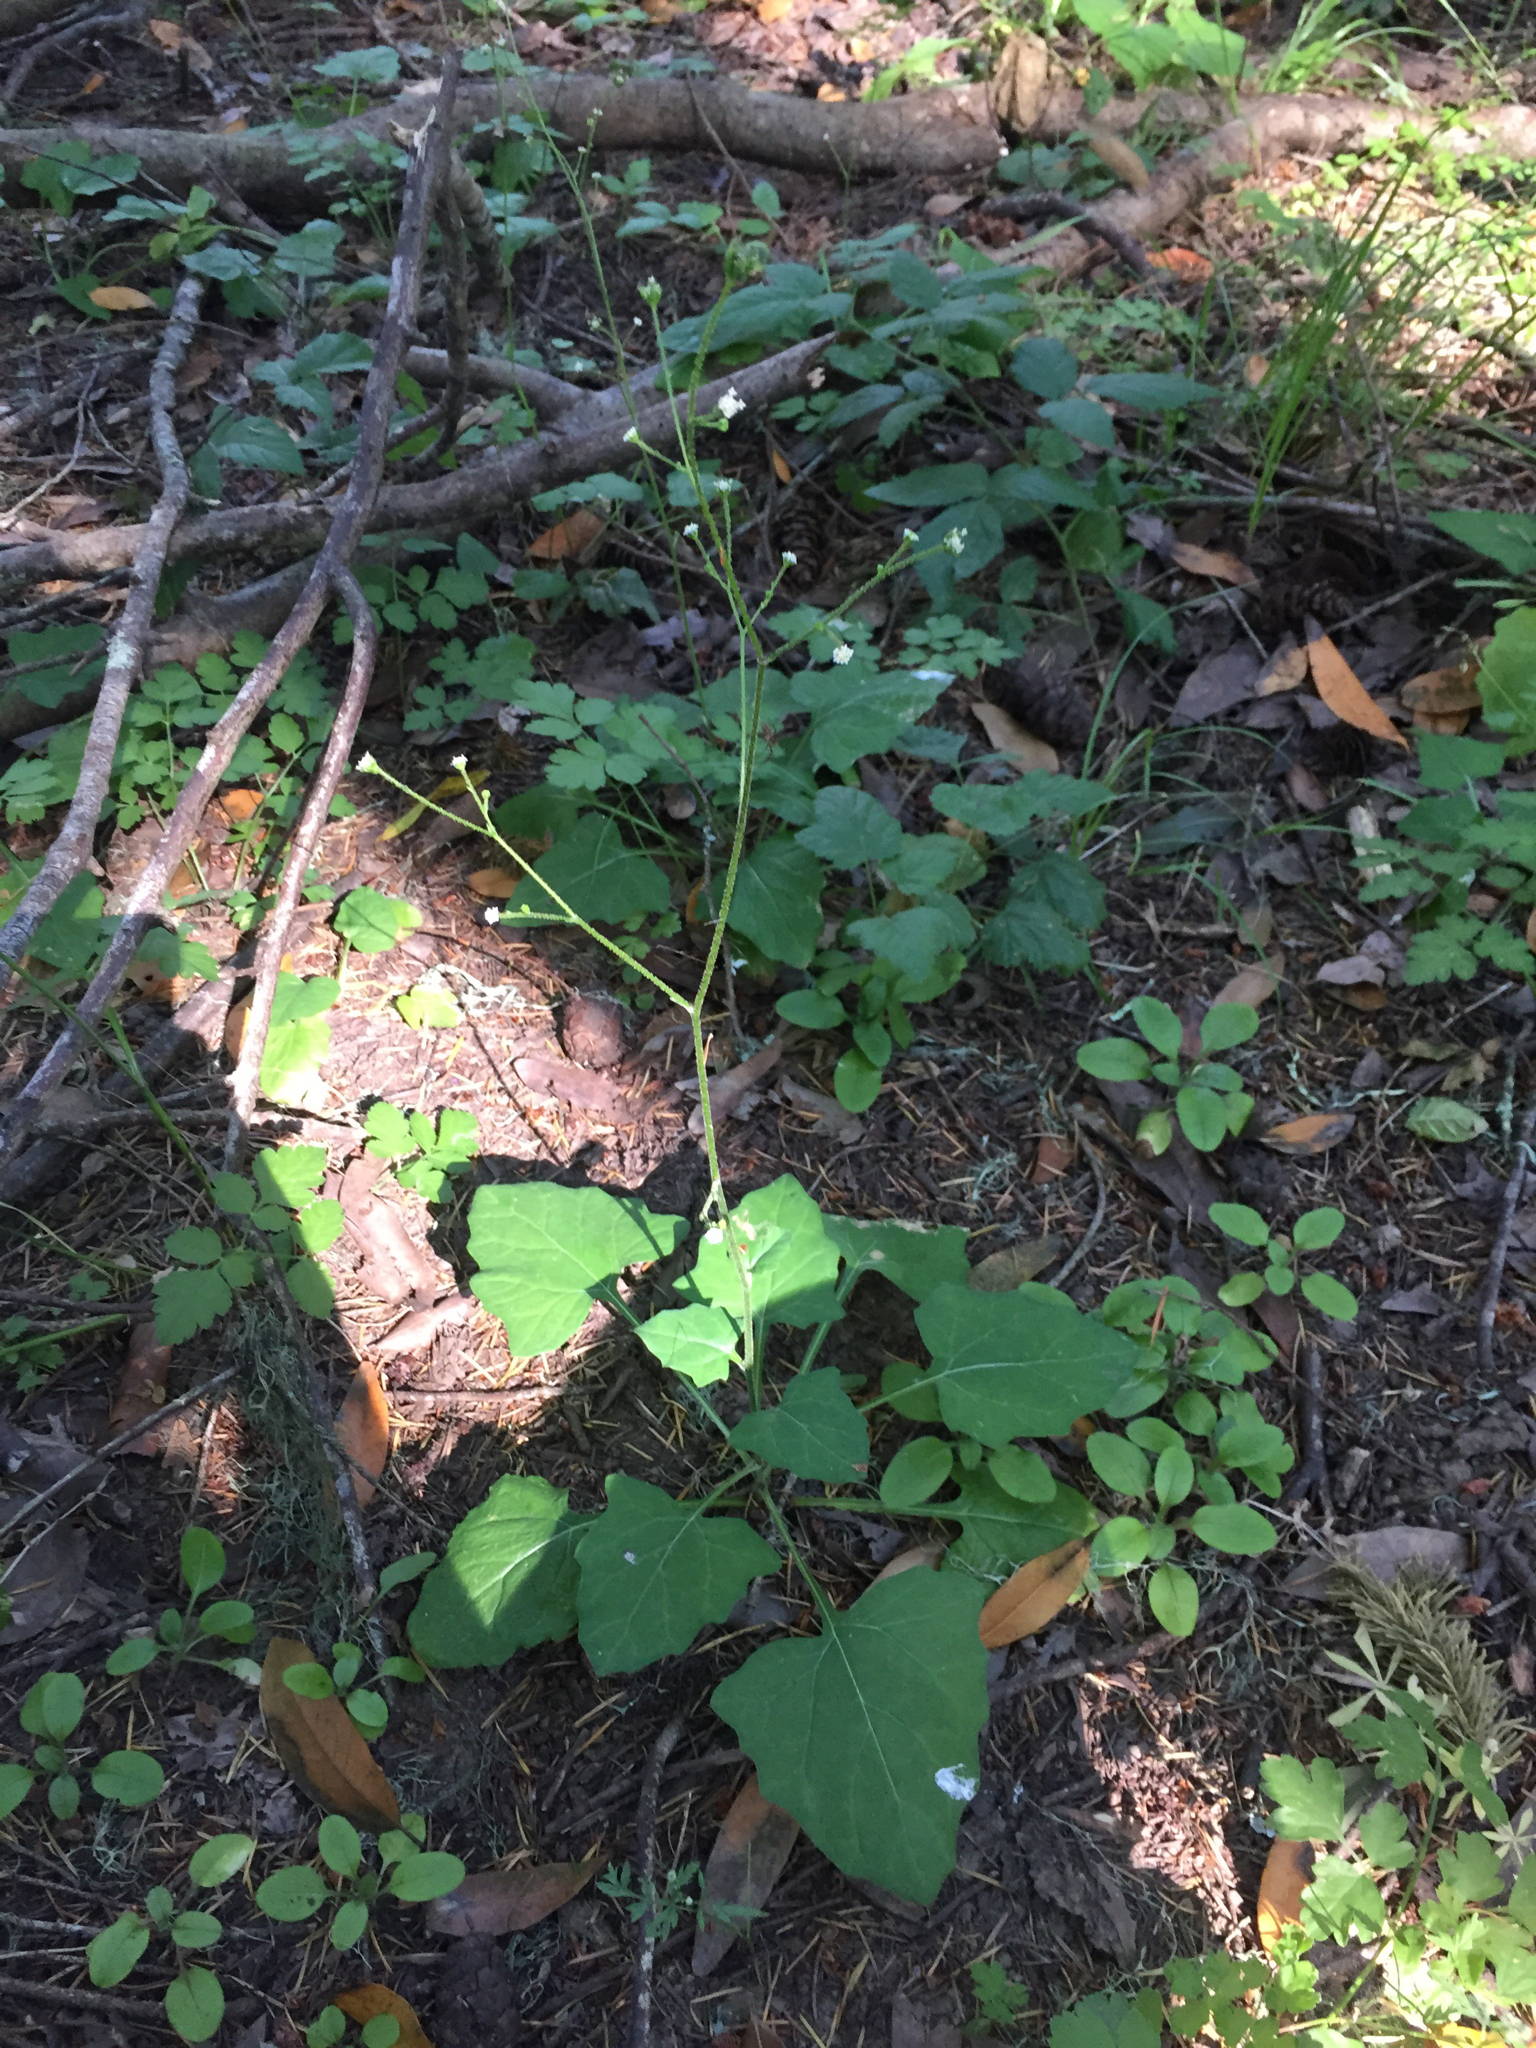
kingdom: Plantae
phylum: Tracheophyta
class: Magnoliopsida
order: Asterales
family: Asteraceae
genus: Adenocaulon
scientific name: Adenocaulon bicolor
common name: Trailplant
